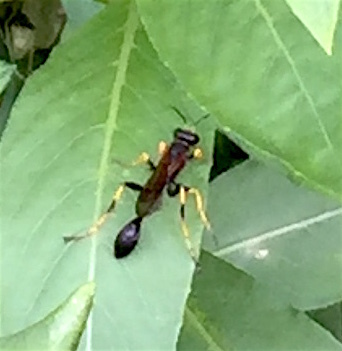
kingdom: Animalia
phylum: Arthropoda
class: Insecta
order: Hymenoptera
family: Sphecidae
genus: Sceliphron
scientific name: Sceliphron caementarium
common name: Mud dauber
